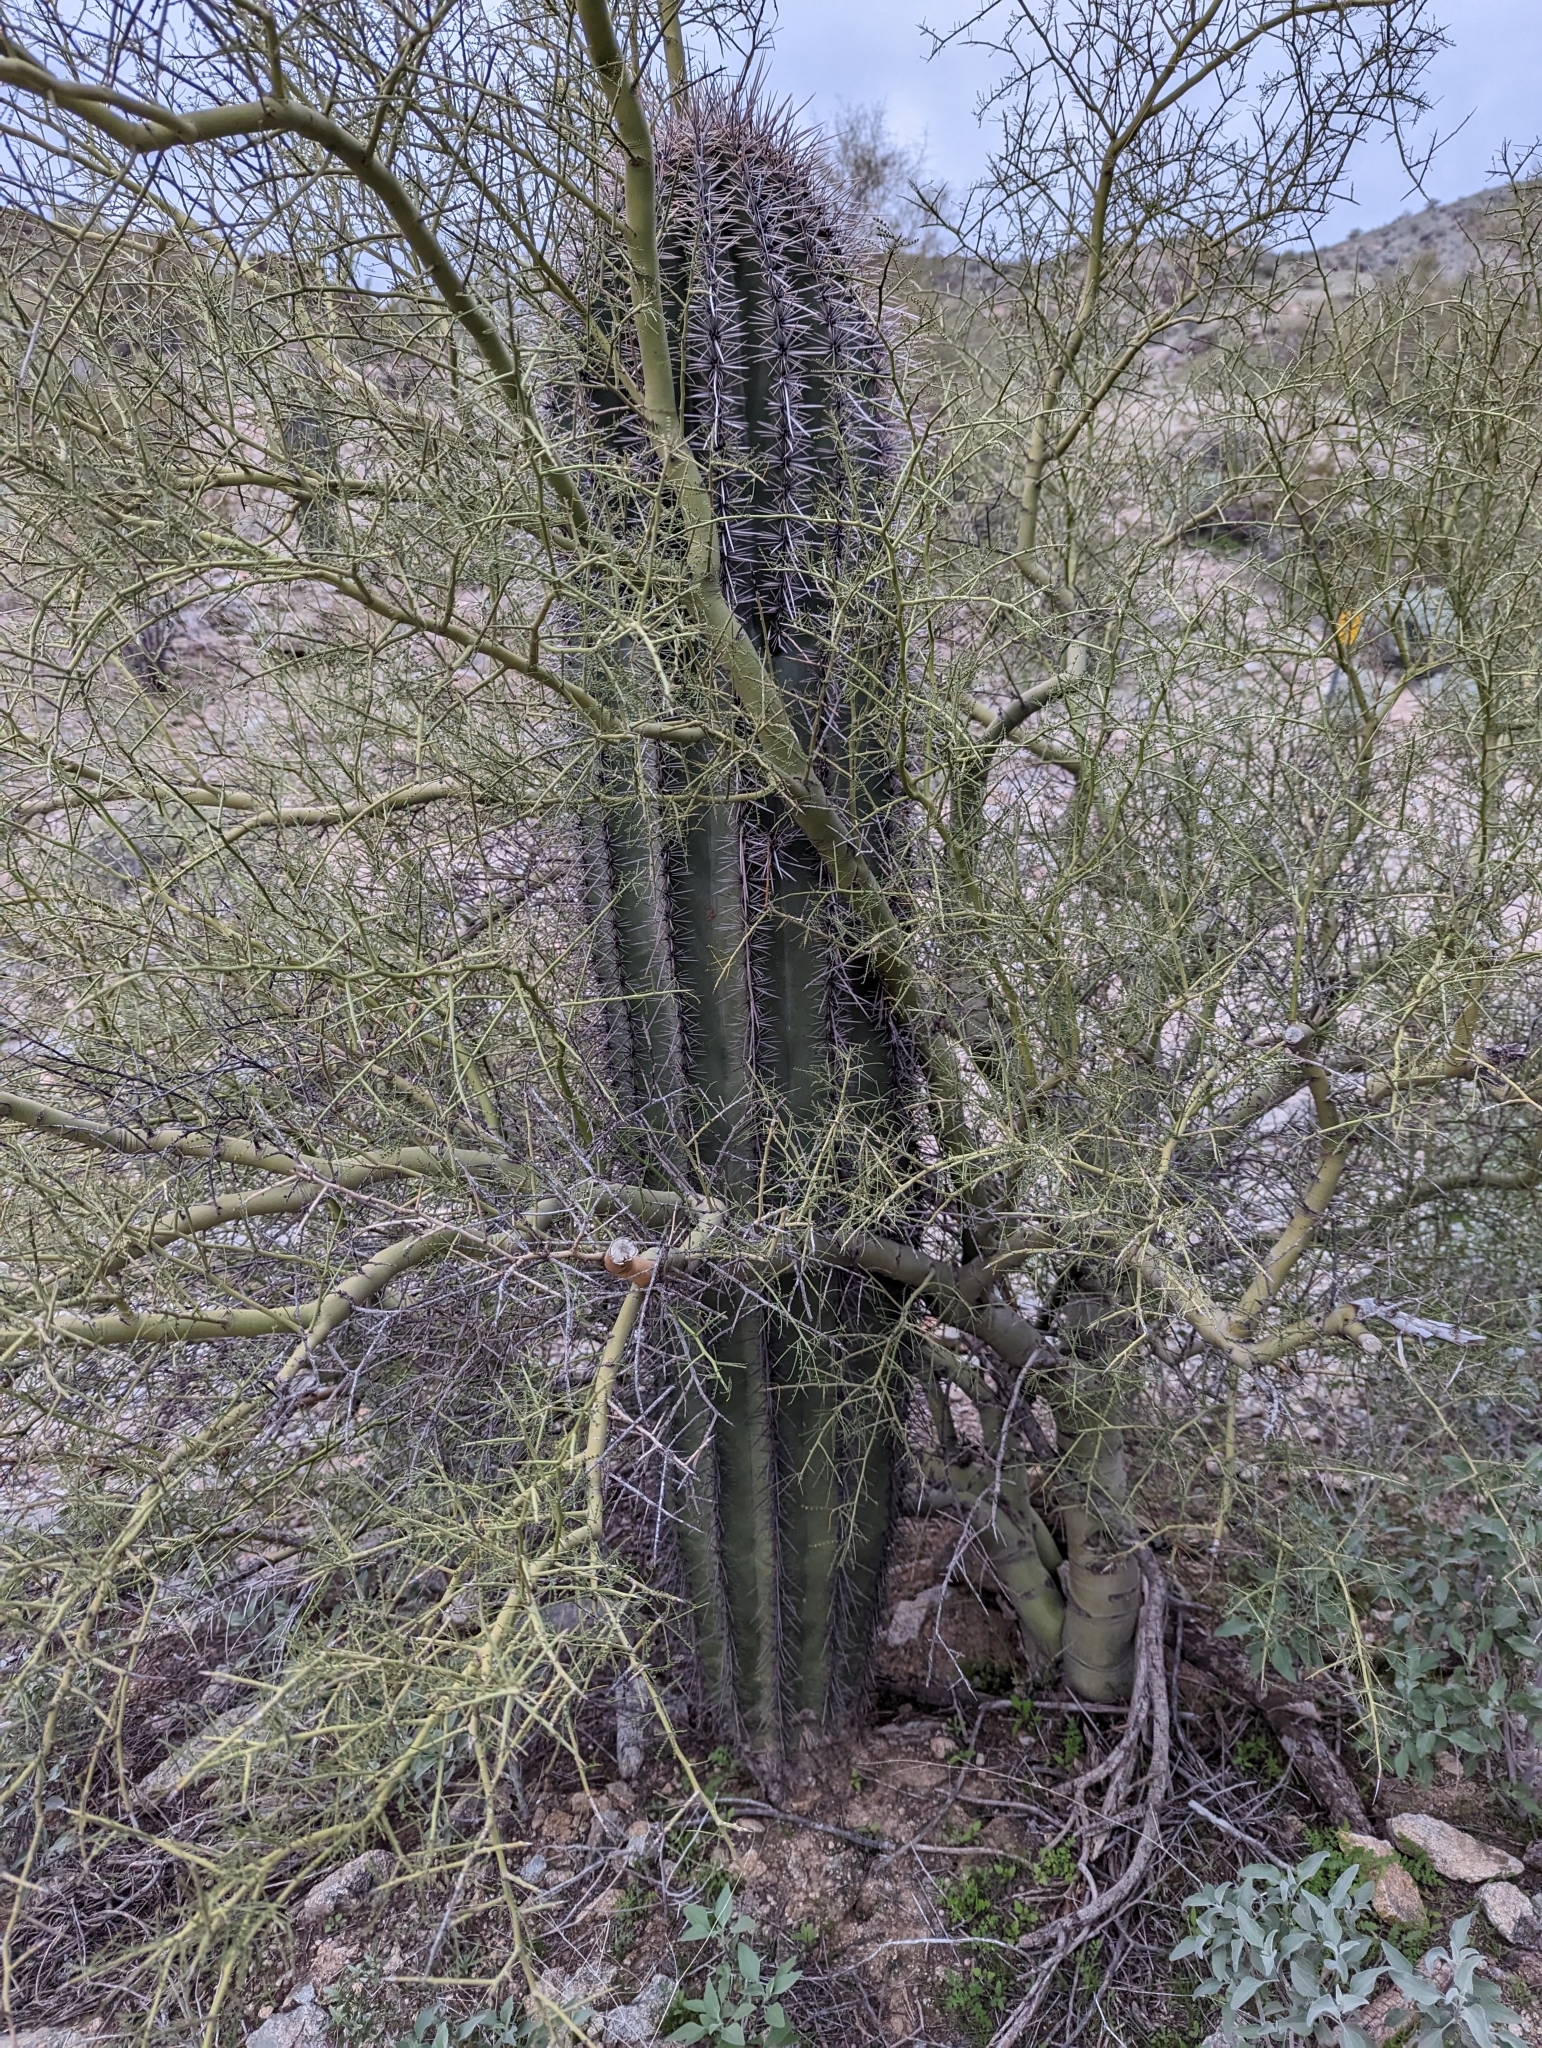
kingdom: Plantae
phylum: Tracheophyta
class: Magnoliopsida
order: Fabales
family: Fabaceae
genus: Parkinsonia
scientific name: Parkinsonia microphylla
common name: Yellow paloverde
